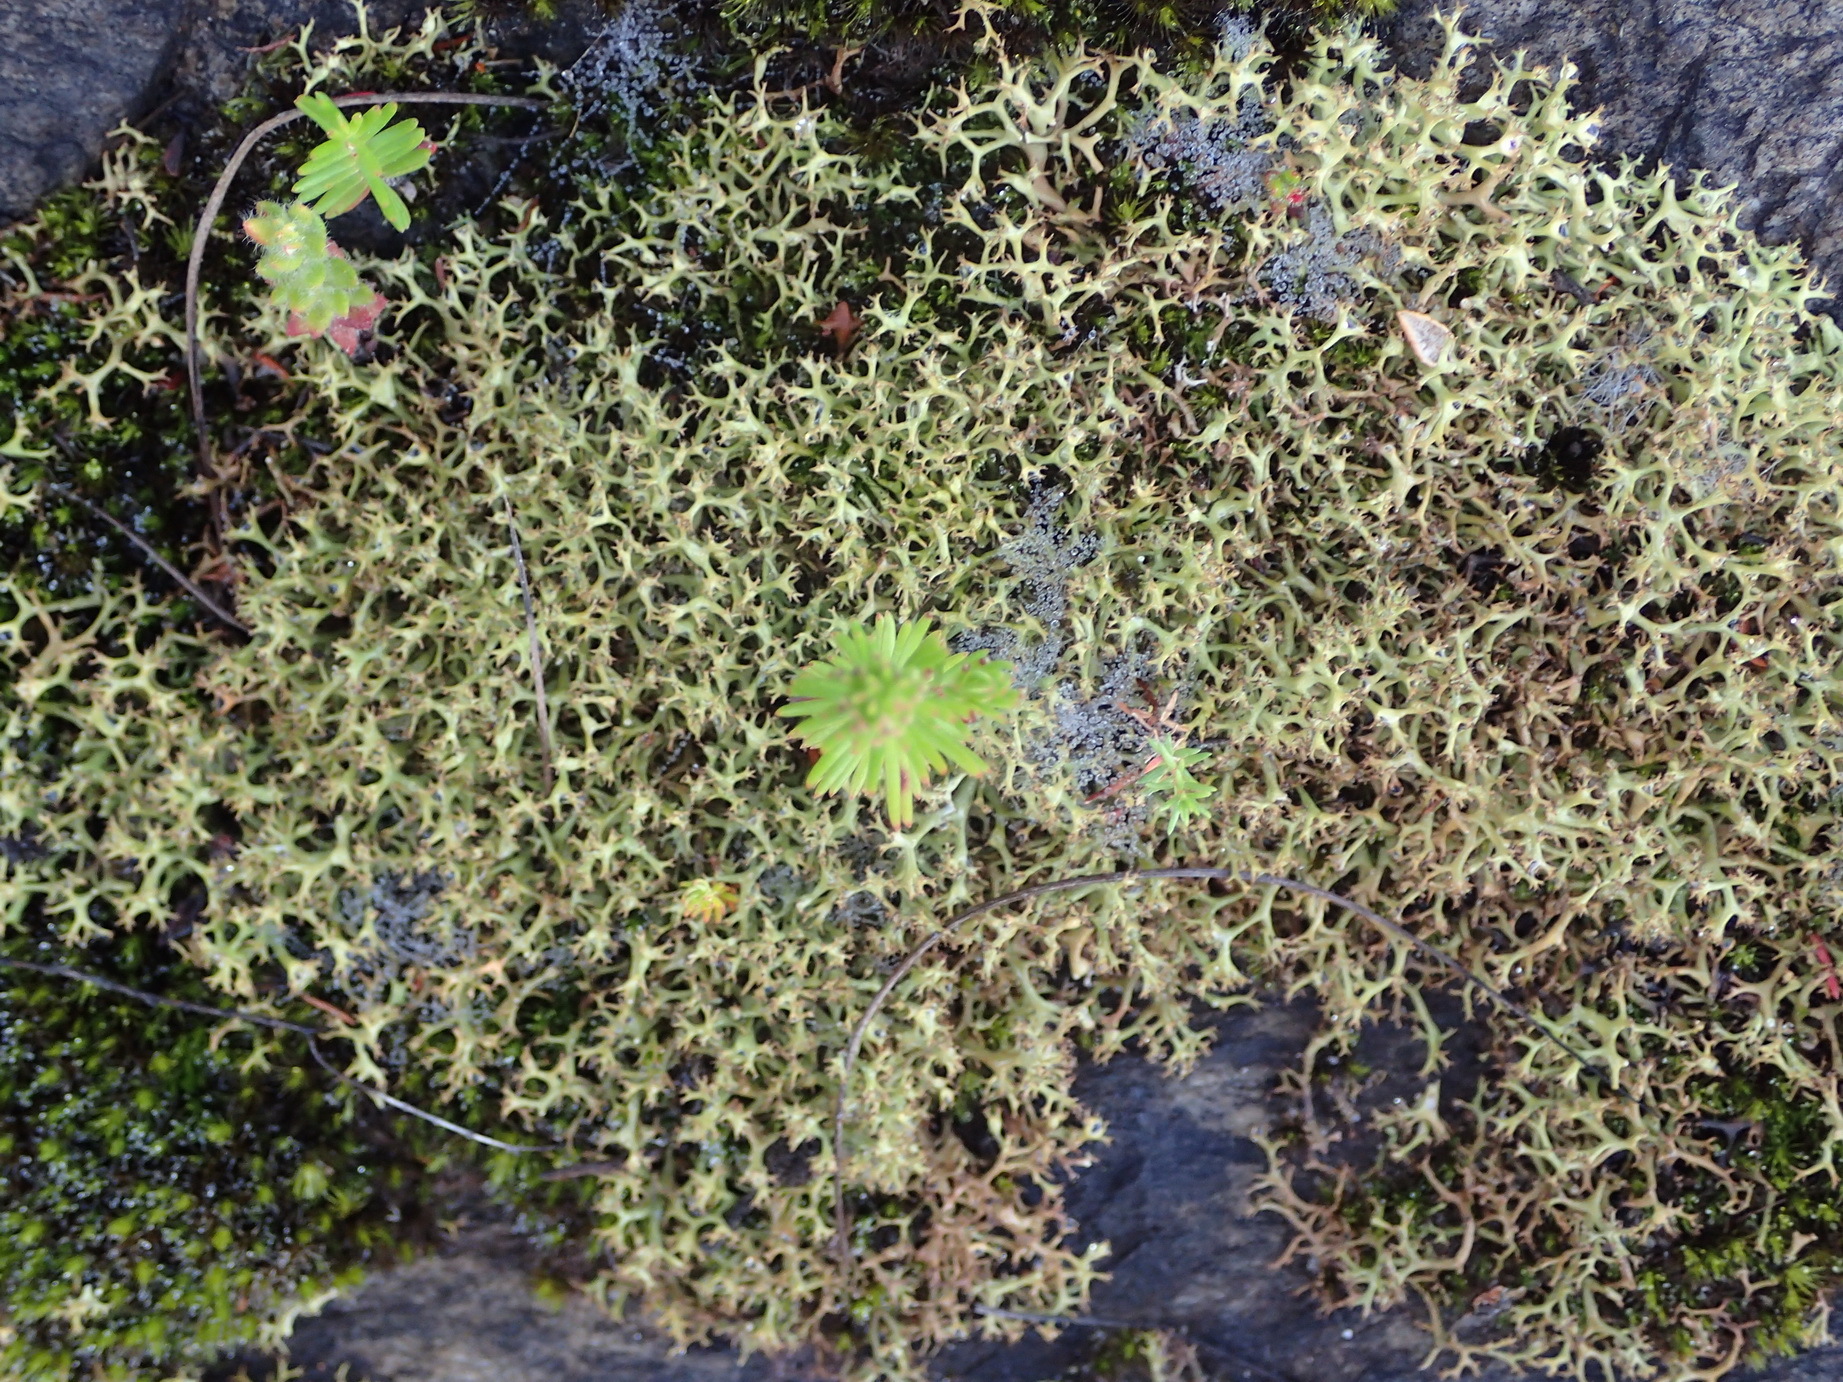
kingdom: Fungi
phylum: Ascomycota
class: Lecanoromycetes
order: Lecanorales
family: Cladoniaceae
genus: Cladia
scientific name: Cladia aggregata
